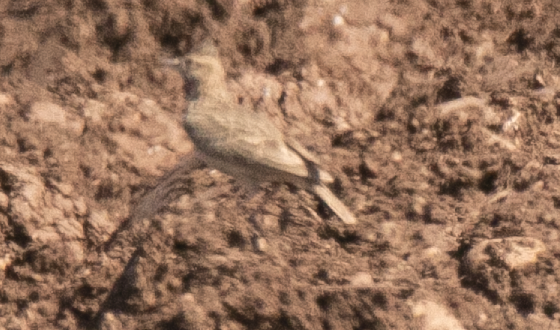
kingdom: Animalia
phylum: Chordata
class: Aves
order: Passeriformes
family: Alaudidae
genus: Galerida
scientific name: Galerida cristata
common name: Crested lark
